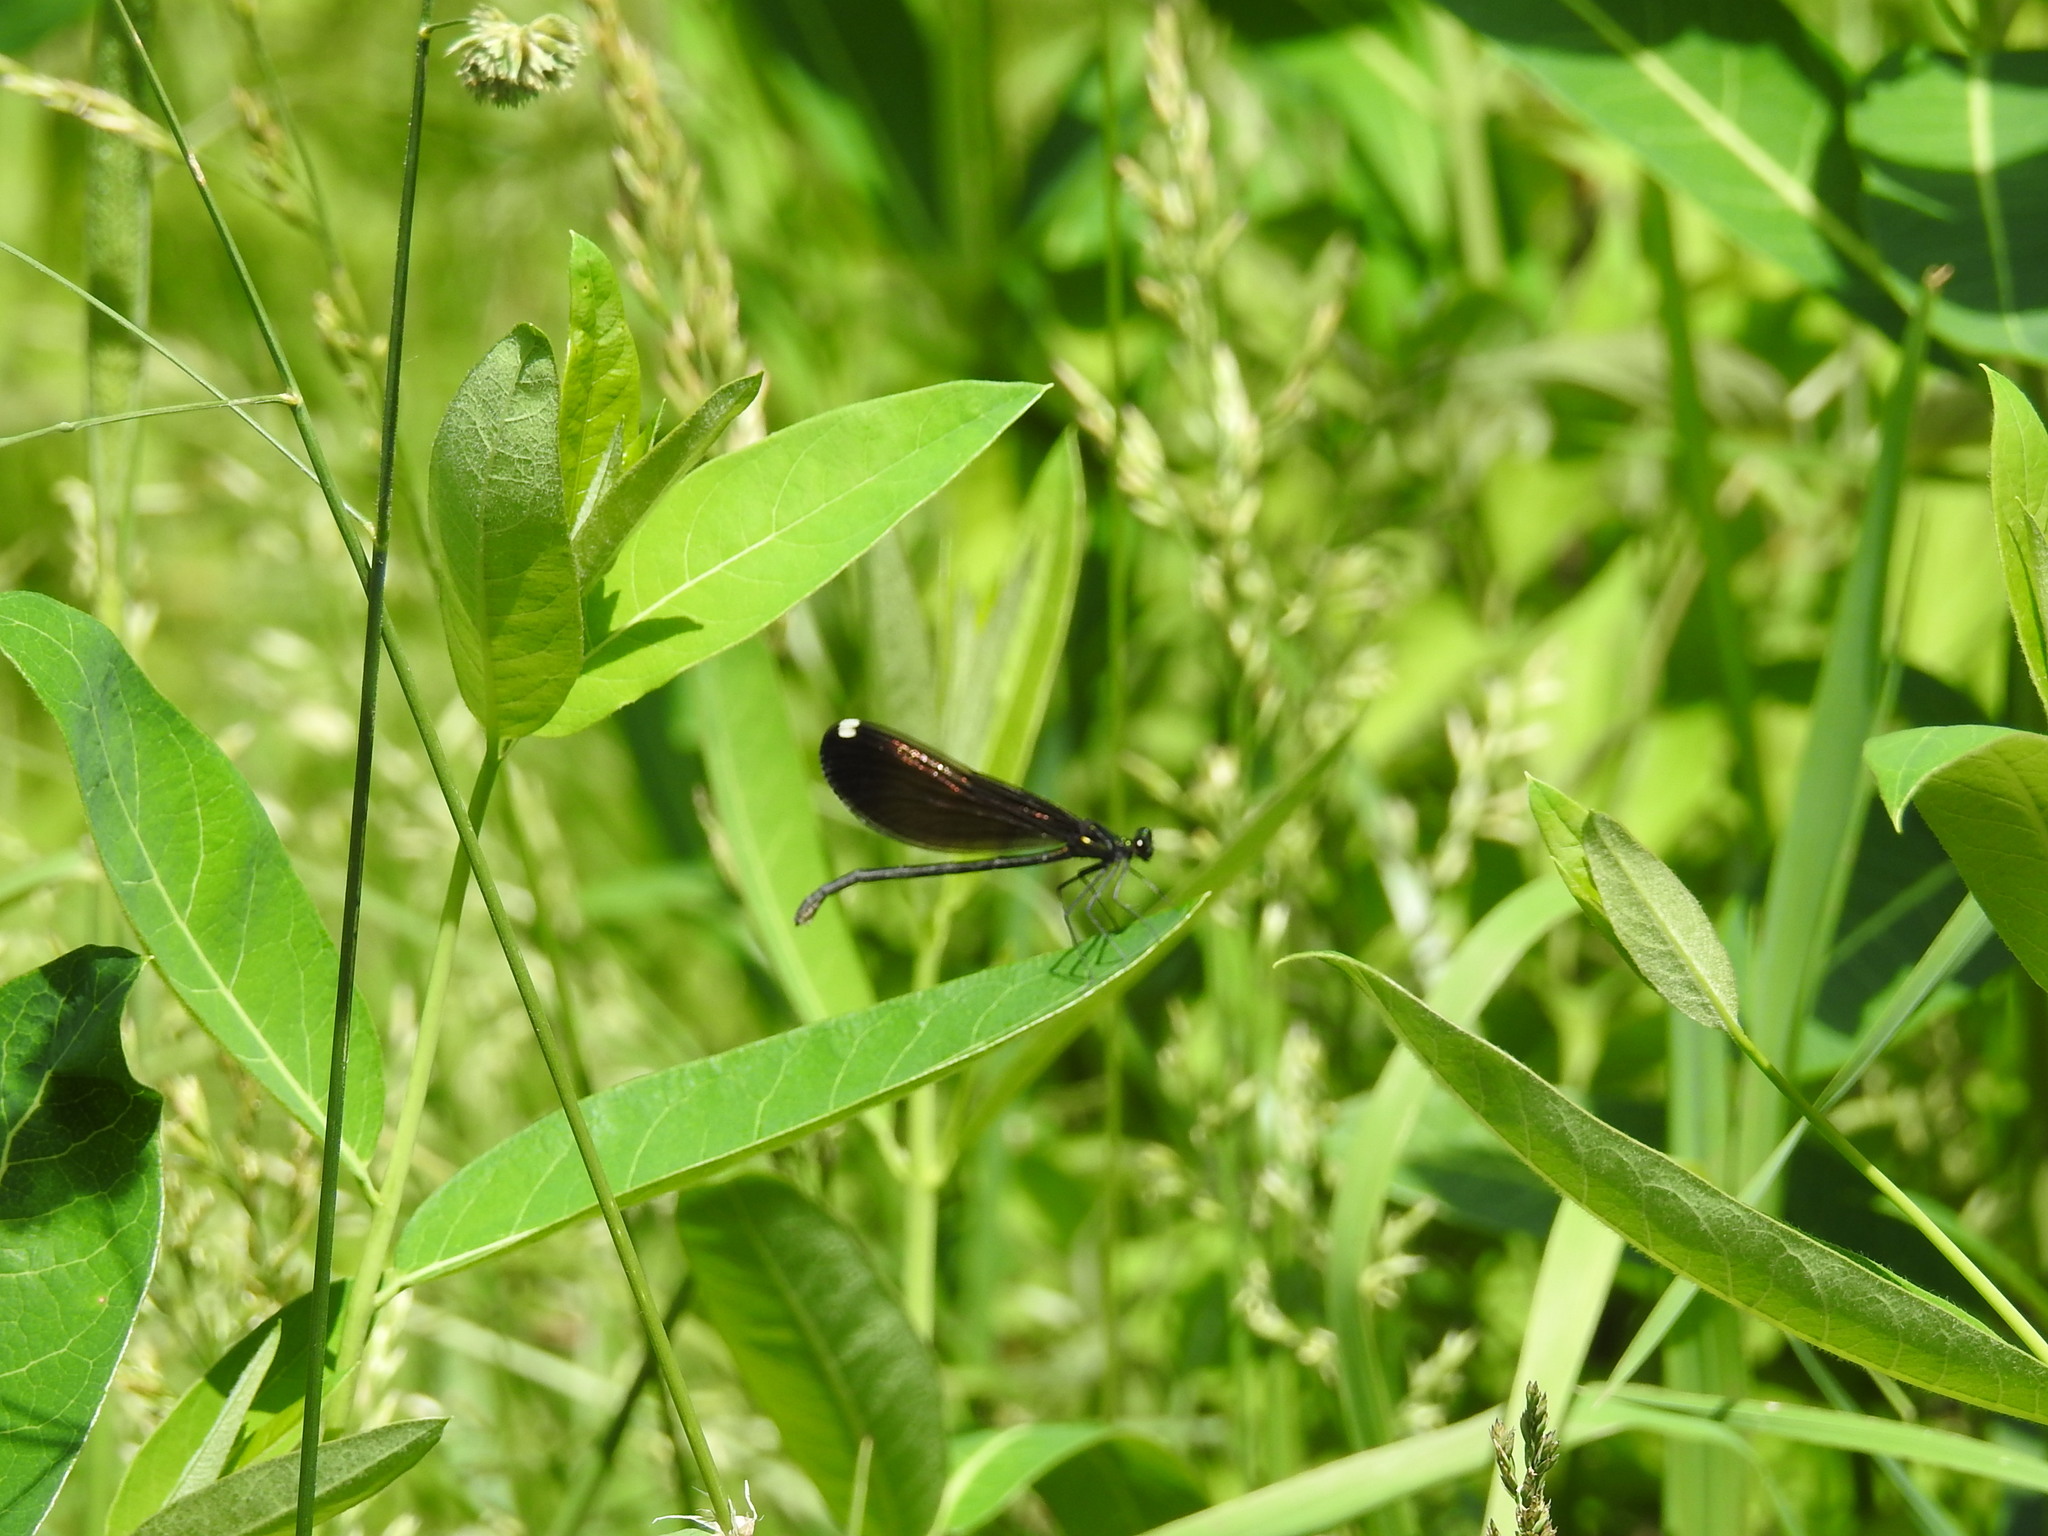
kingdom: Animalia
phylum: Arthropoda
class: Insecta
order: Odonata
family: Calopterygidae
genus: Calopteryx
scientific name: Calopteryx maculata
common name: Ebony jewelwing
